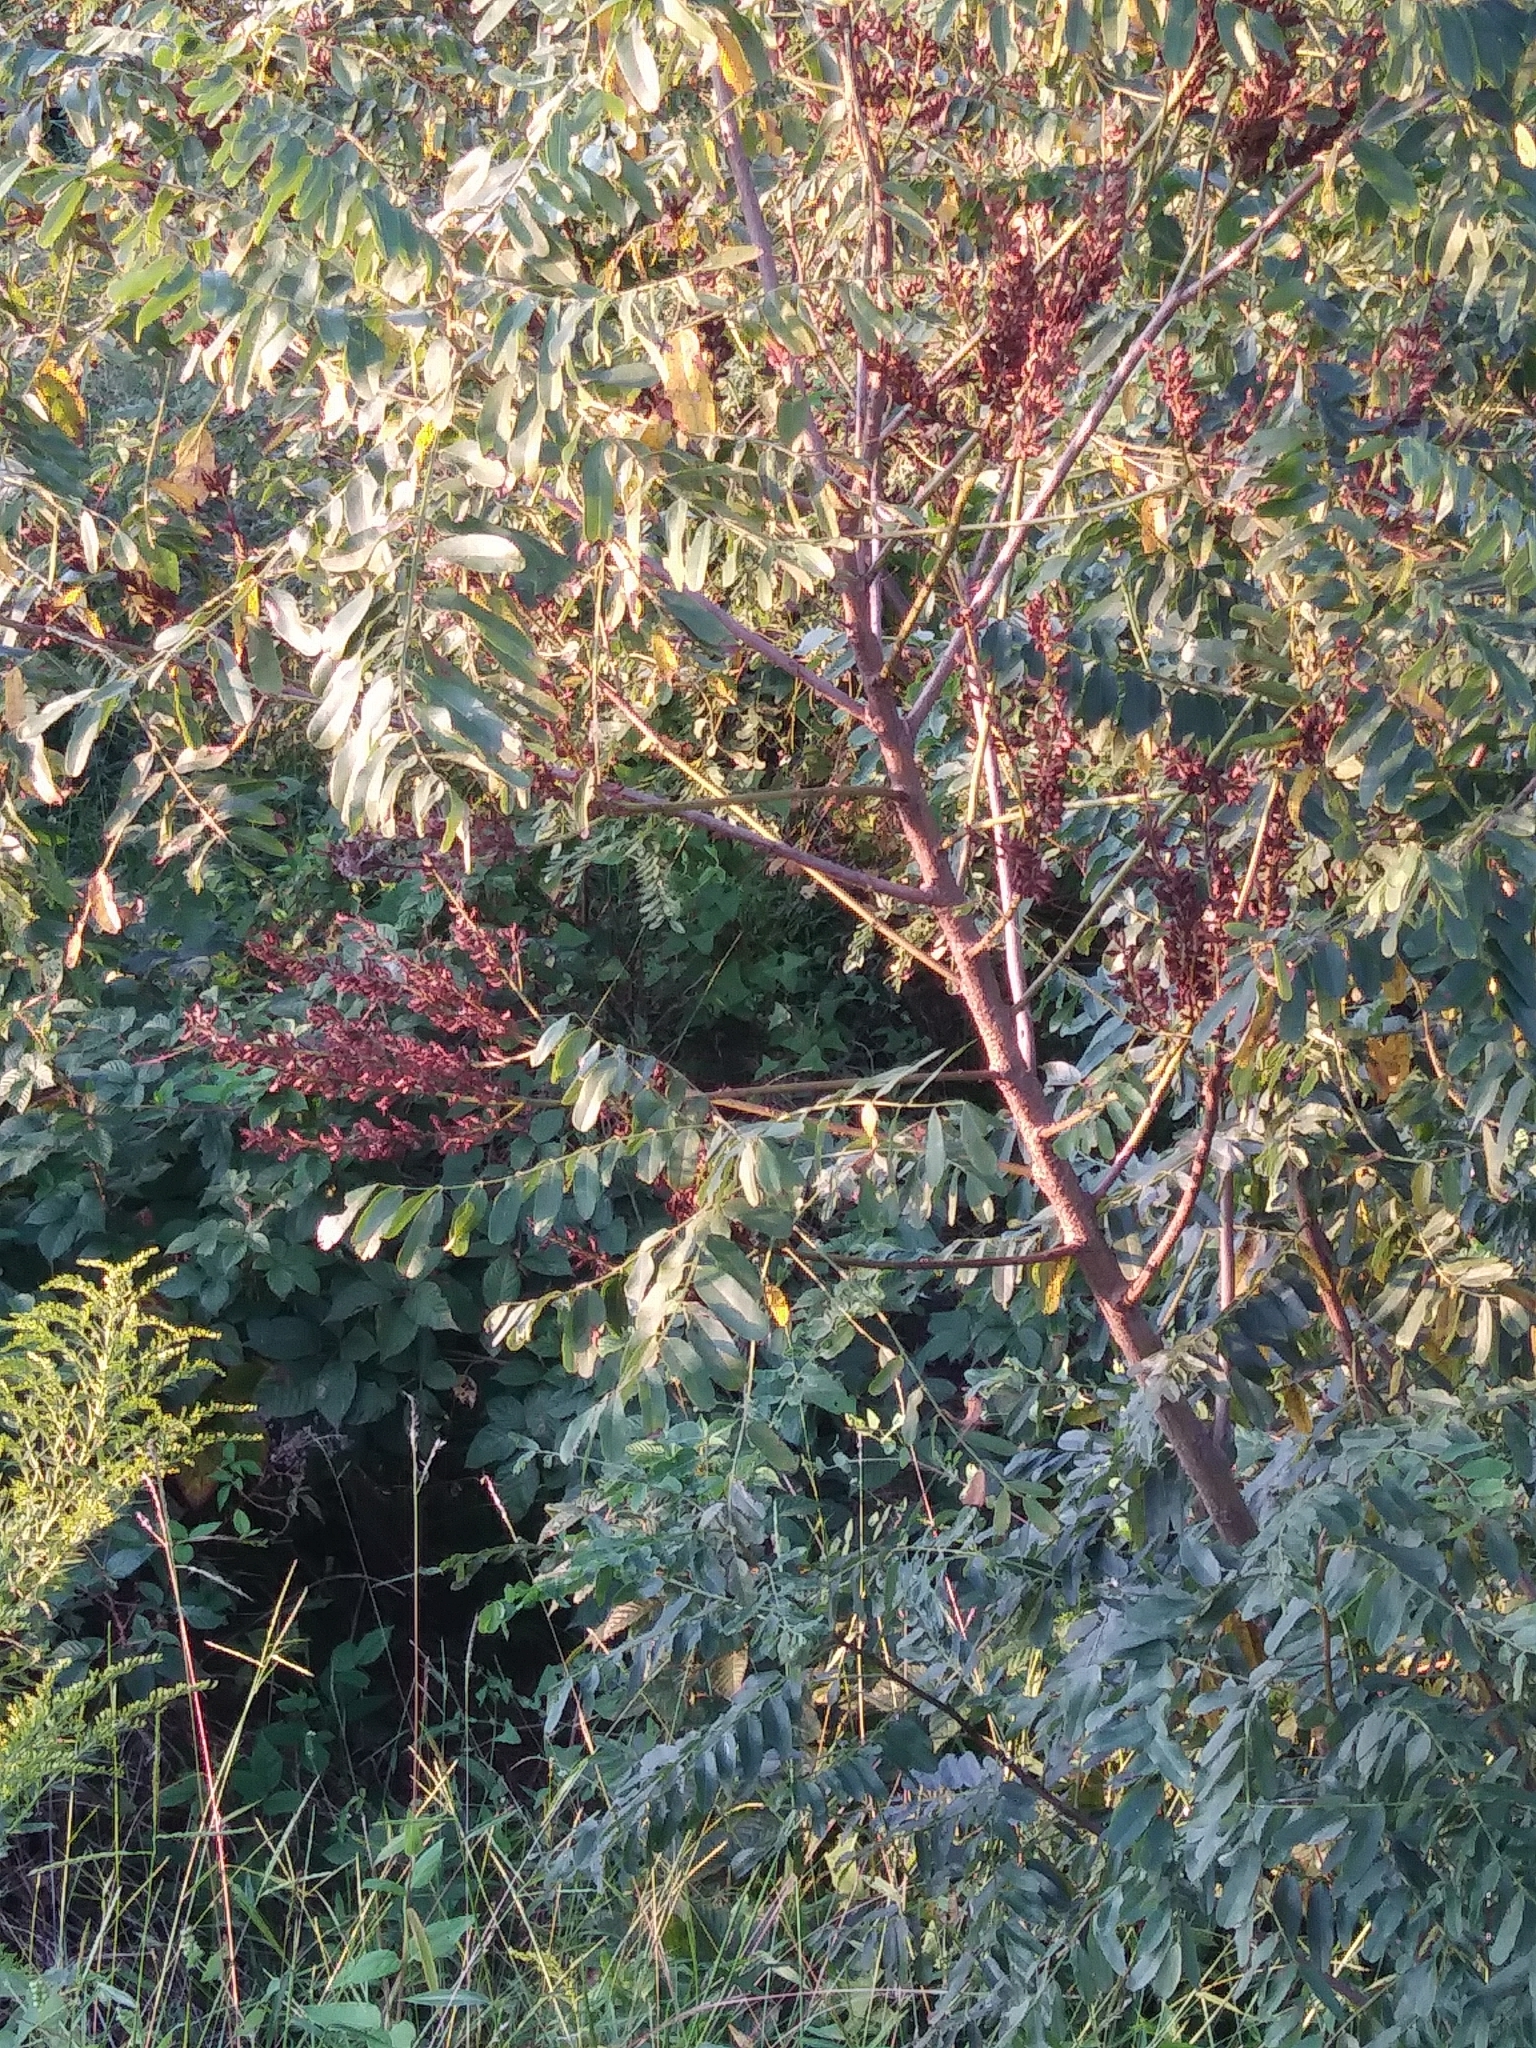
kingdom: Plantae
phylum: Tracheophyta
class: Magnoliopsida
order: Fabales
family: Fabaceae
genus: Amorpha
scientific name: Amorpha fruticosa
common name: False indigo
